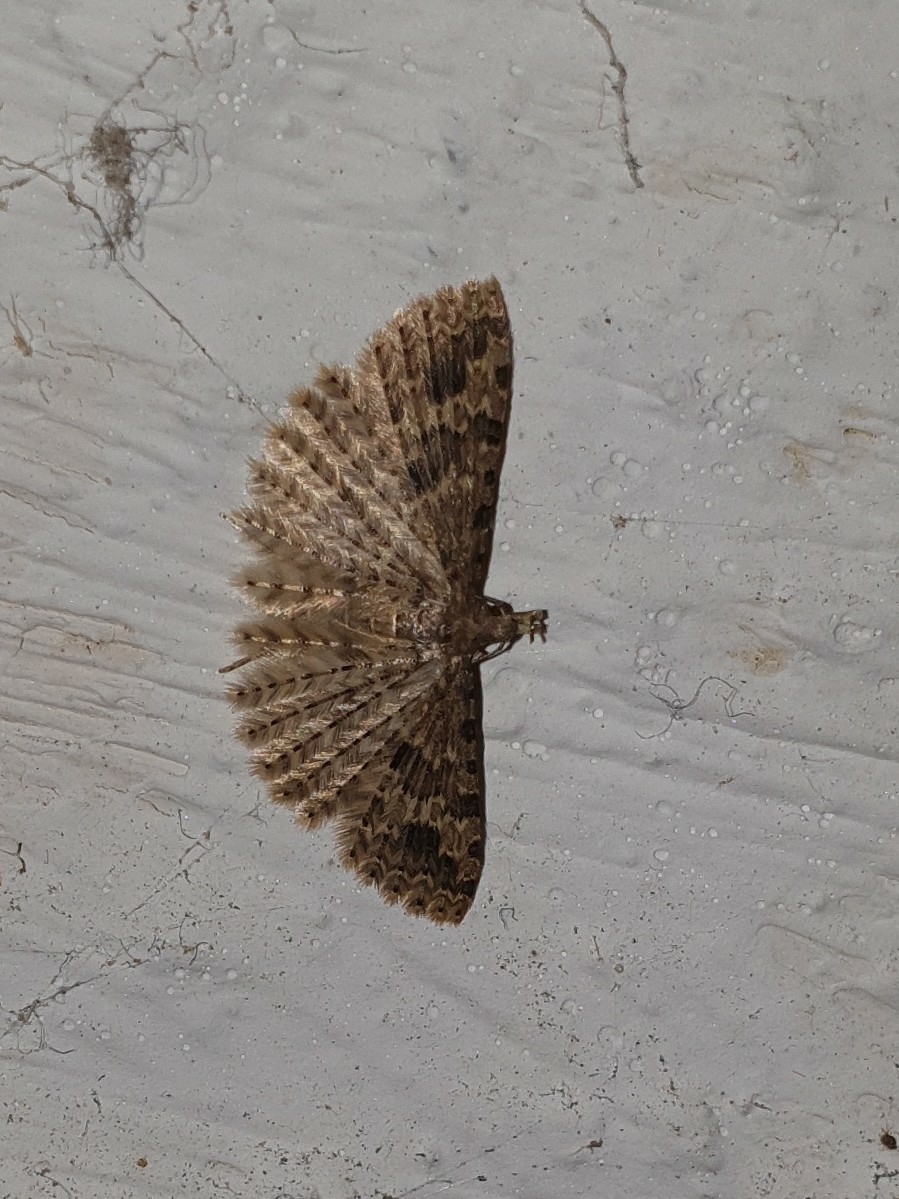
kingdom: Animalia
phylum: Arthropoda
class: Insecta
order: Lepidoptera
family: Alucitidae
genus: Alucita
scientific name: Alucita hexadactyla
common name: Twenty-plume moth
